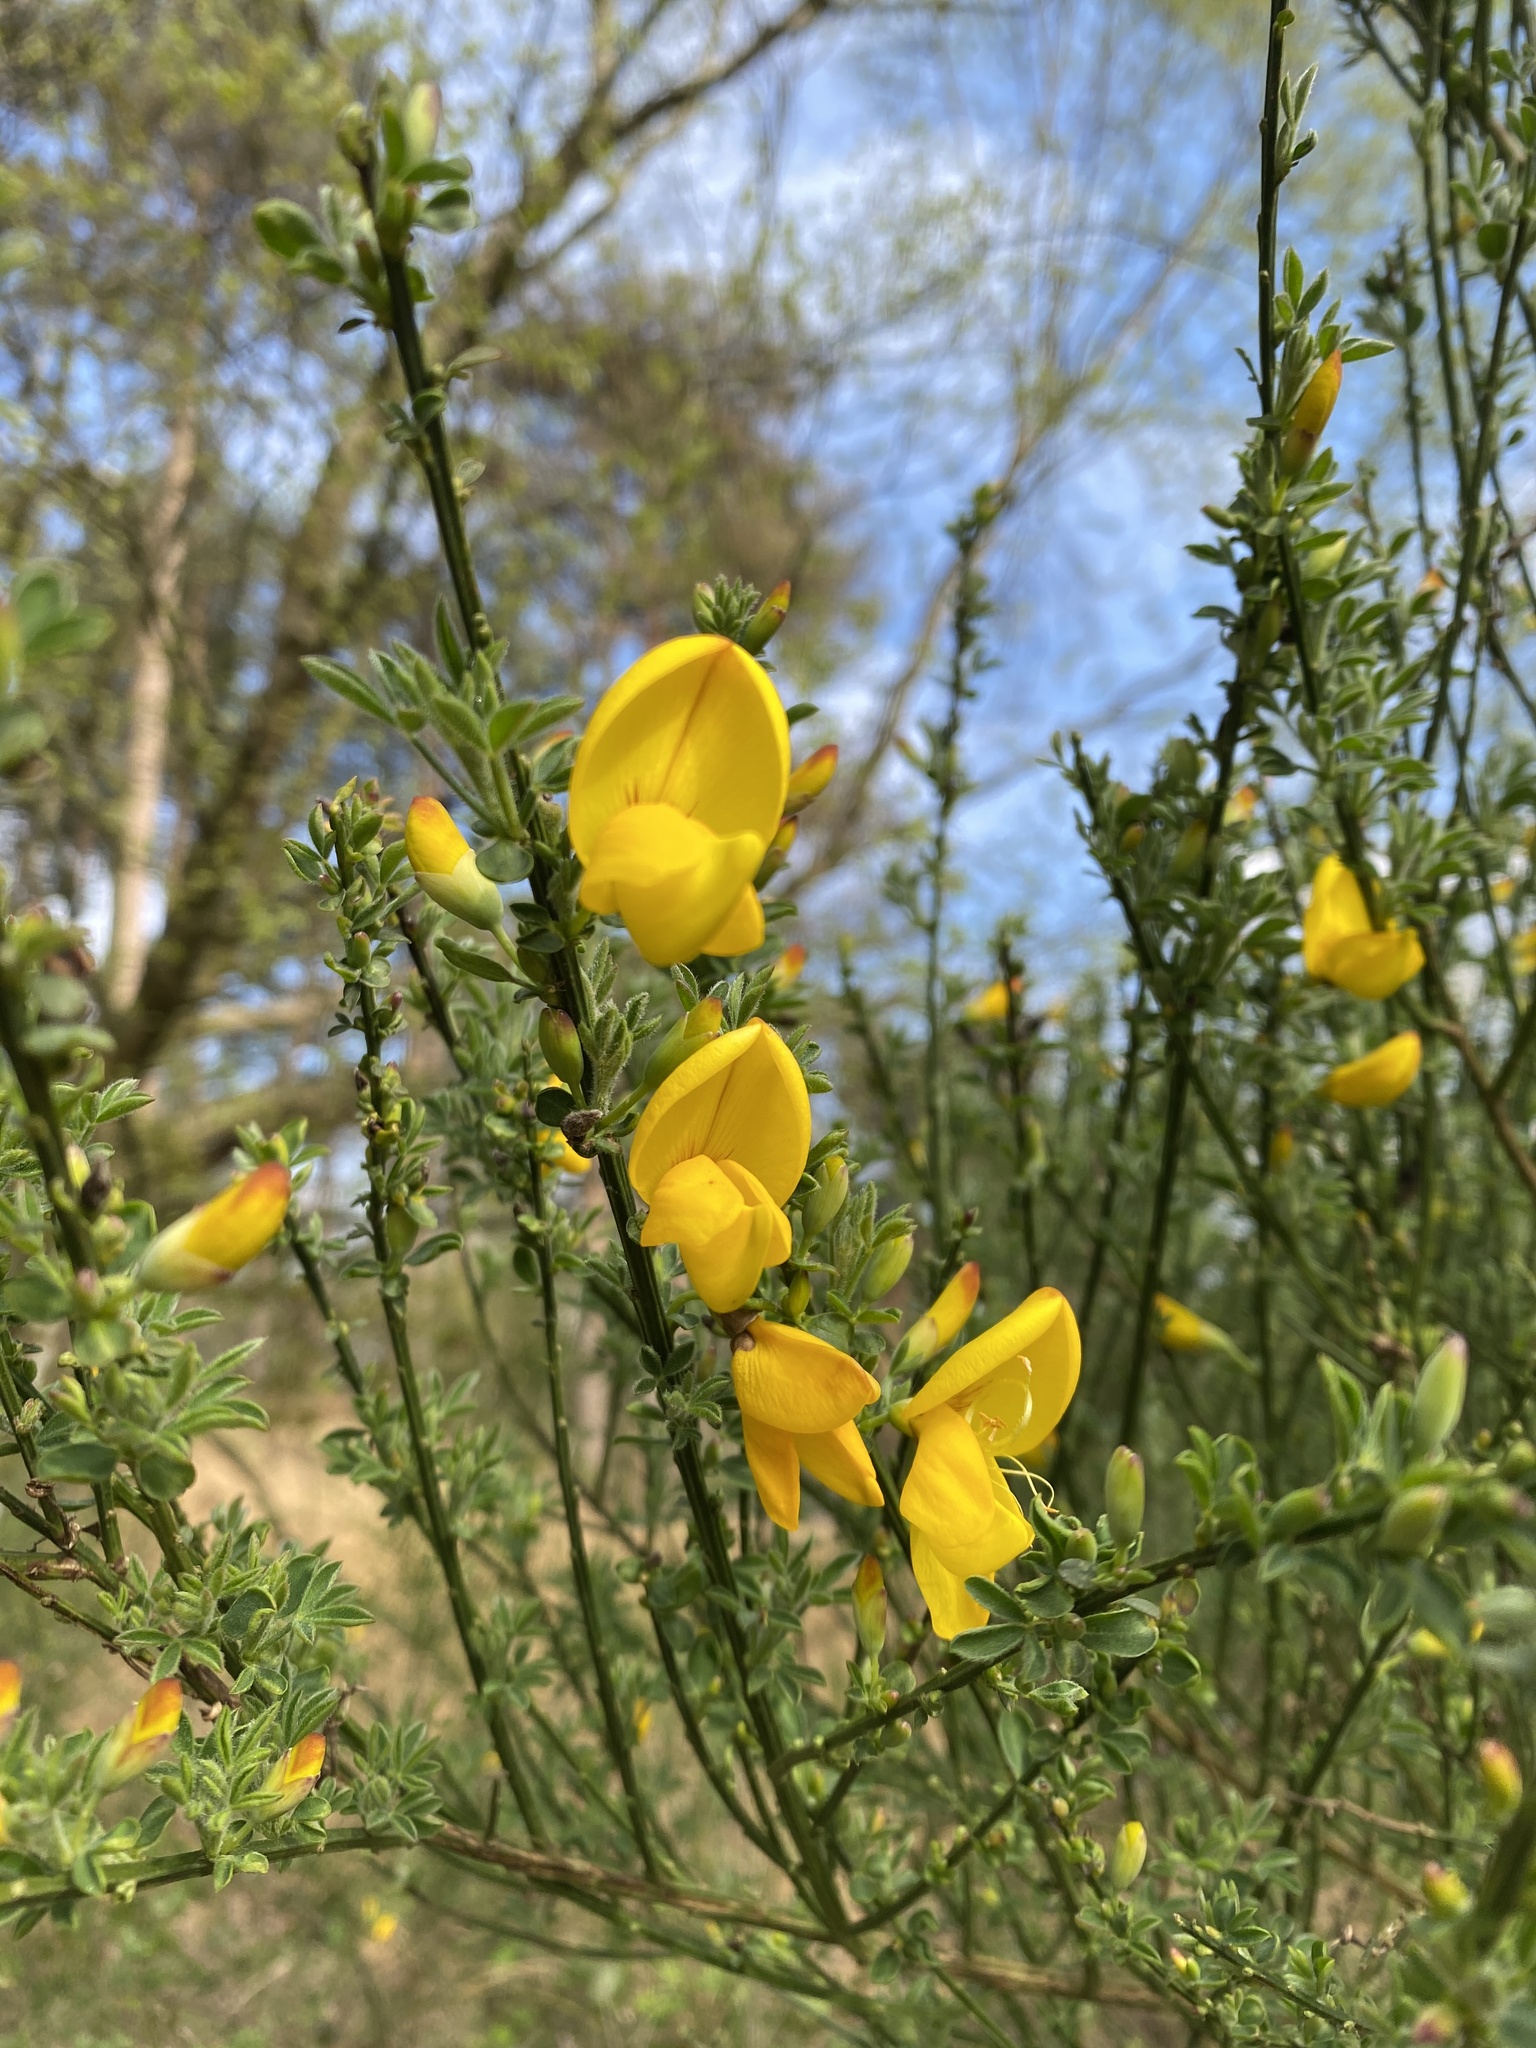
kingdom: Plantae
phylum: Tracheophyta
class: Magnoliopsida
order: Fabales
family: Fabaceae
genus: Cytisus
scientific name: Cytisus scoparius
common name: Scotch broom
